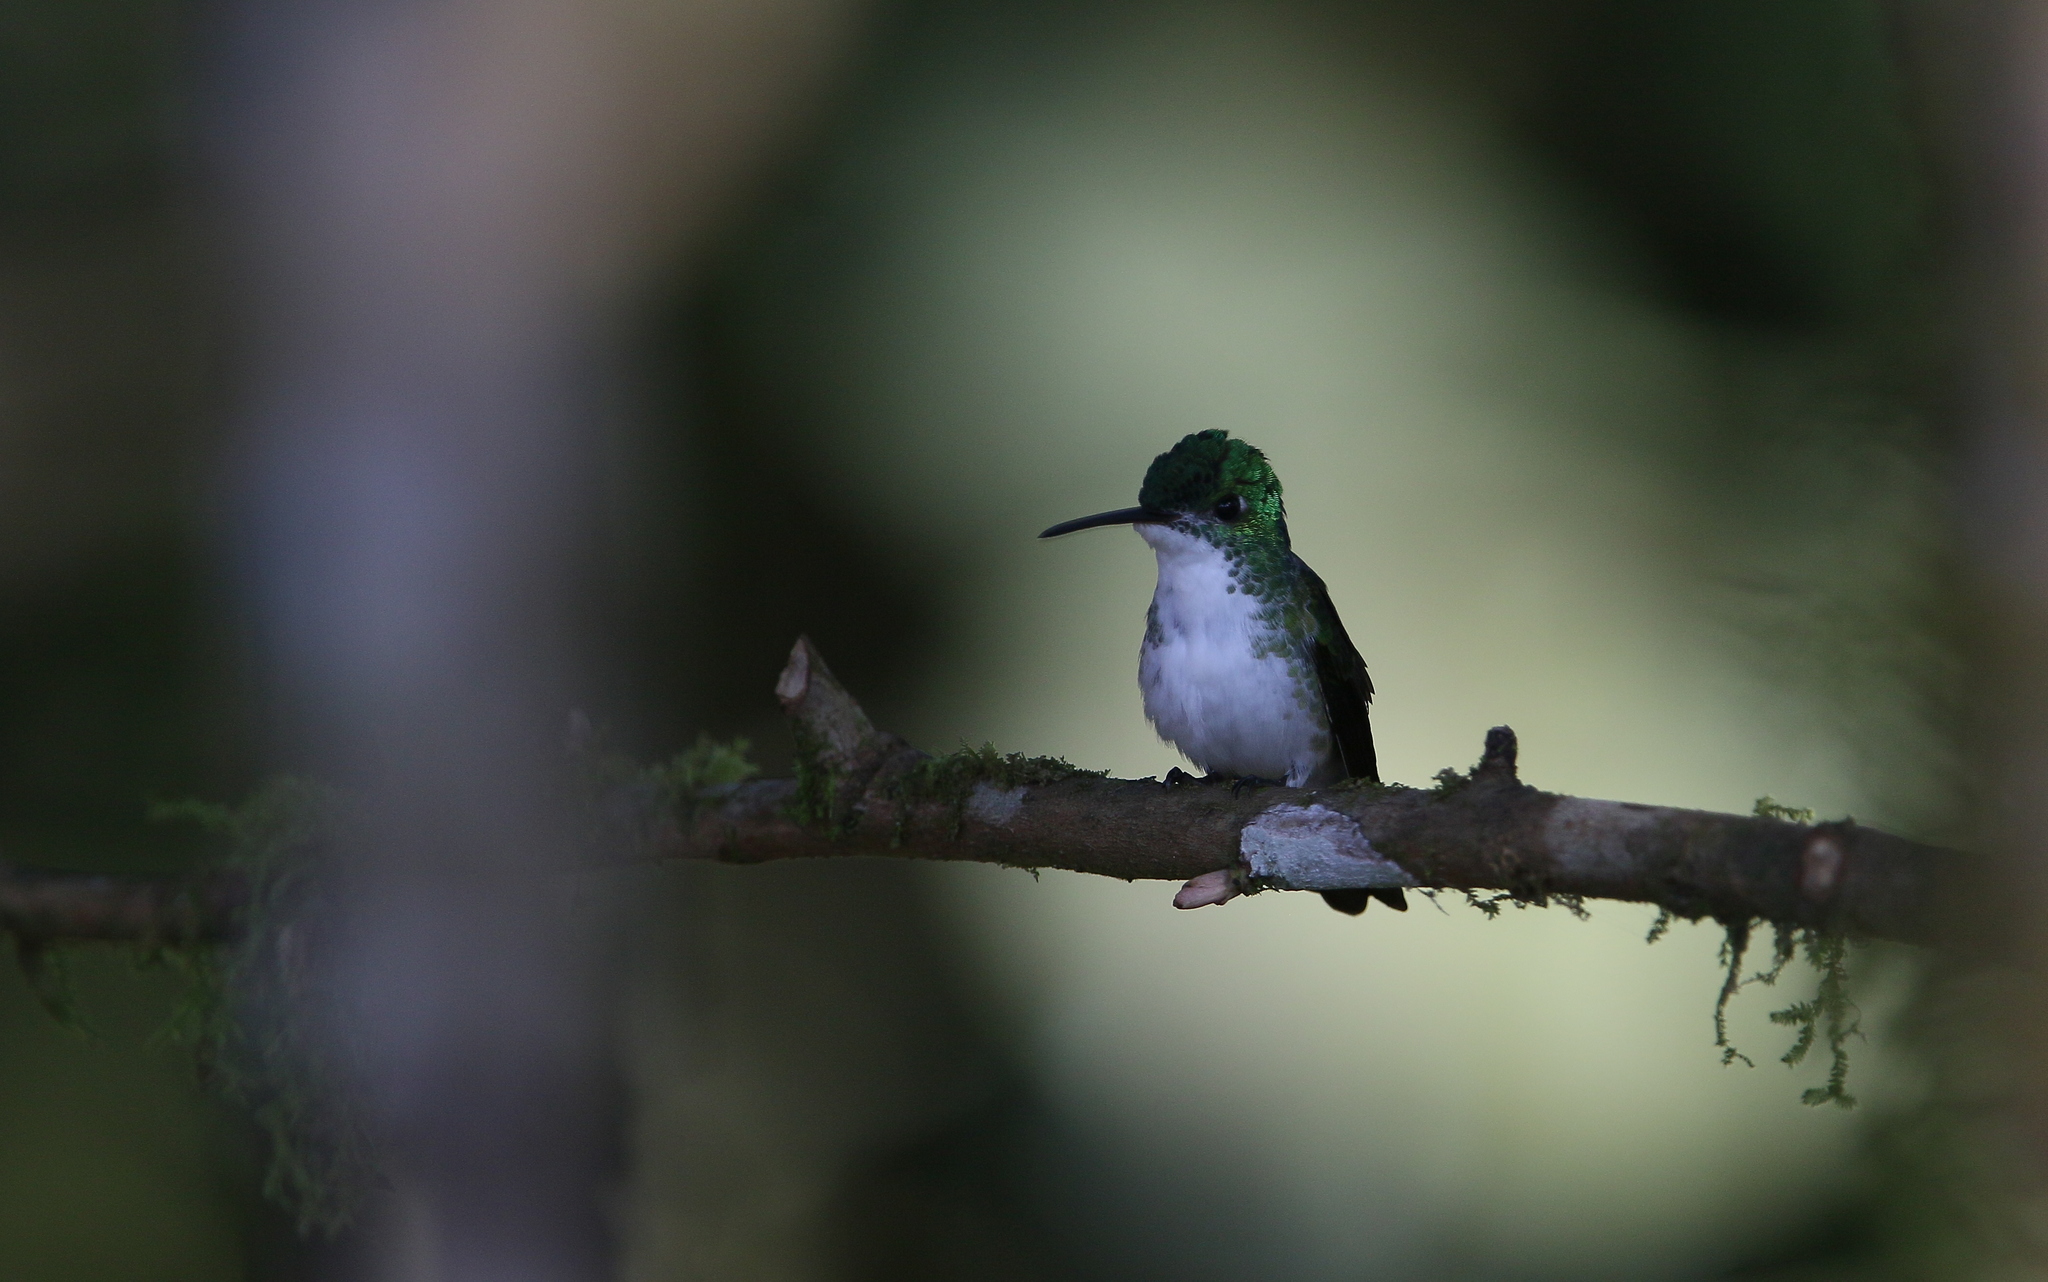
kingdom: Animalia
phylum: Chordata
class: Aves
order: Apodiformes
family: Trochilidae
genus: Uranomitra
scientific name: Uranomitra franciae
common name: Andean emerald
